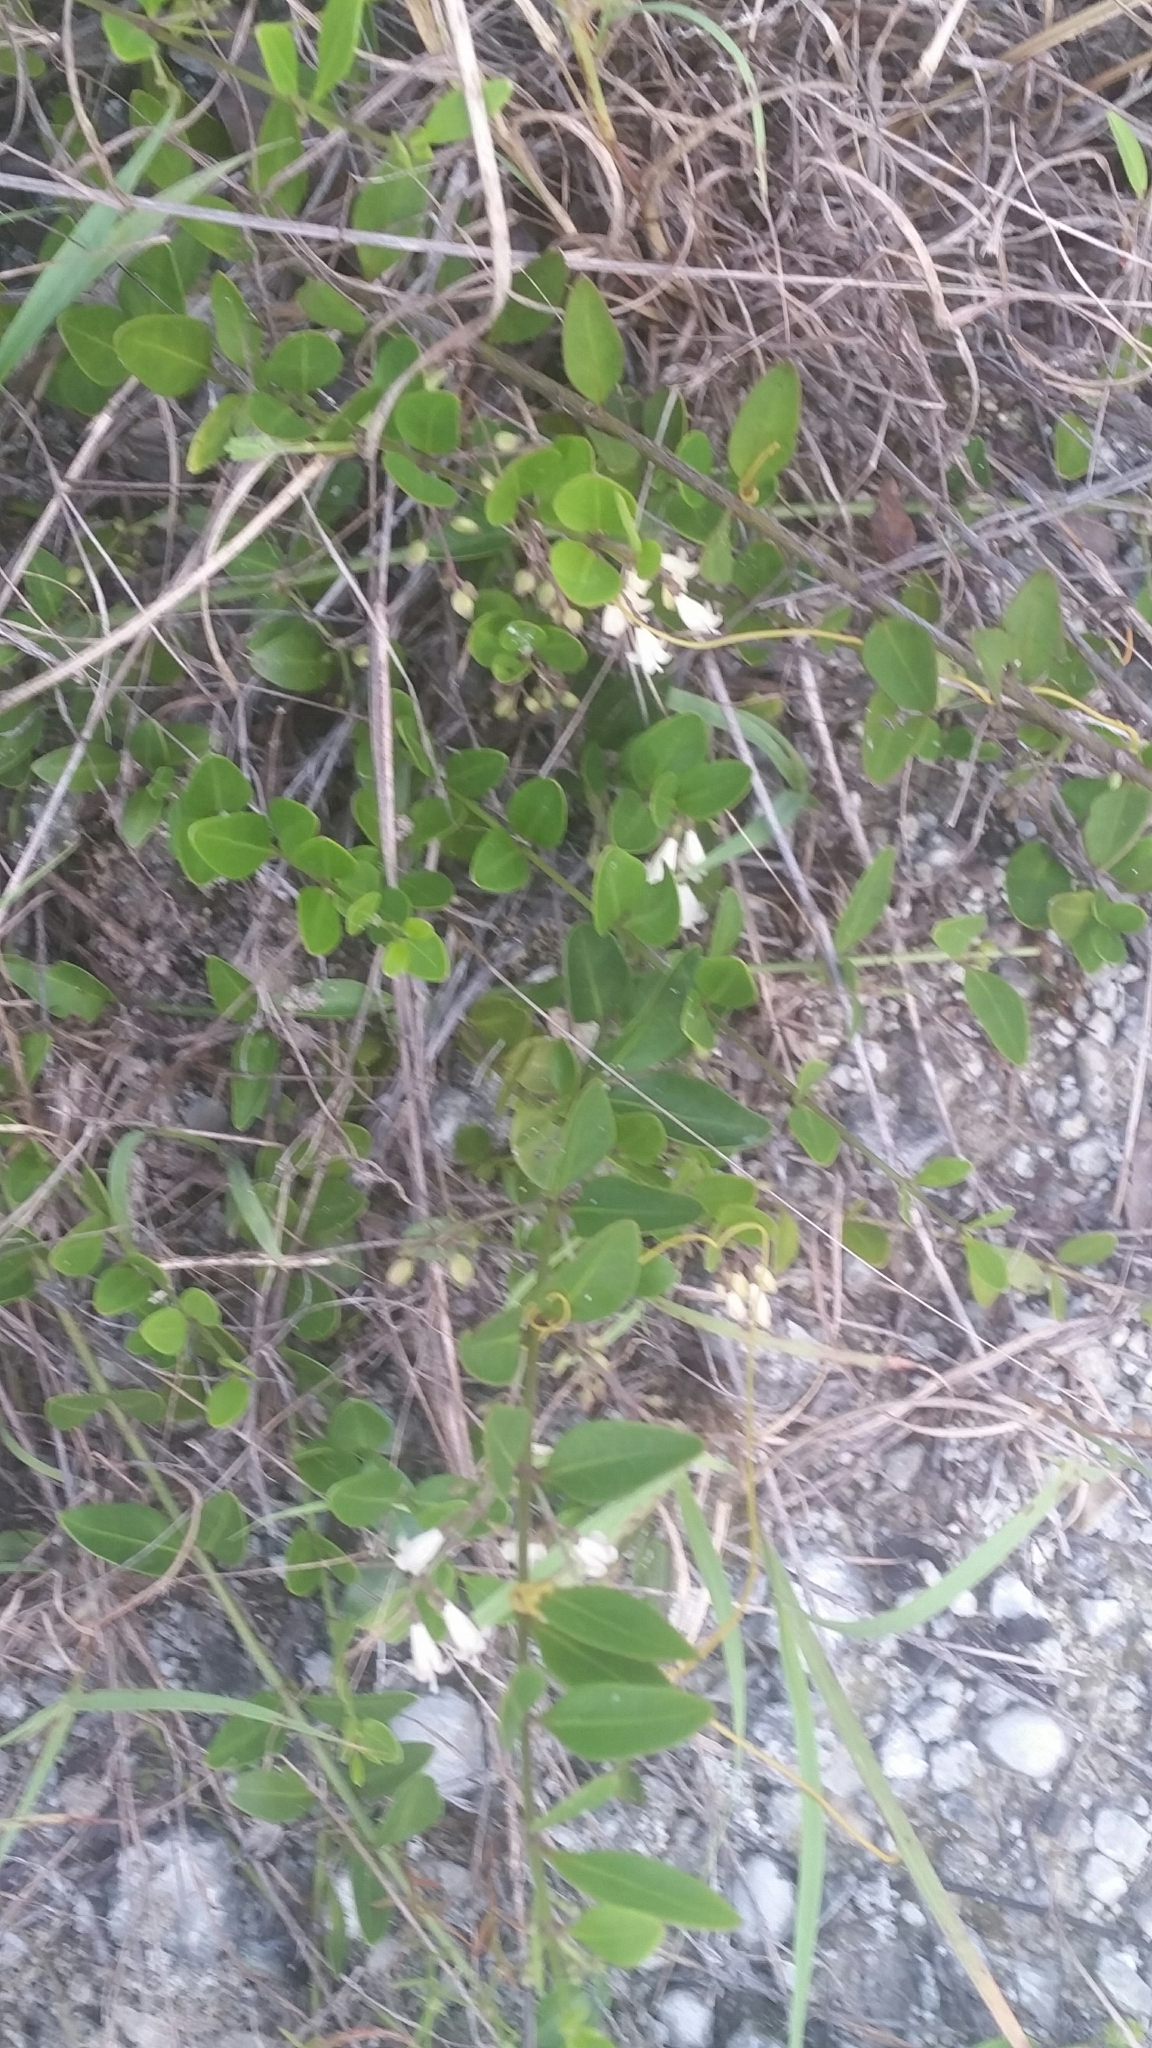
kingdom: Plantae
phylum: Tracheophyta
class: Magnoliopsida
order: Gentianales
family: Rubiaceae
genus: Chiococca
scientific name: Chiococca alba
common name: Snowberry
